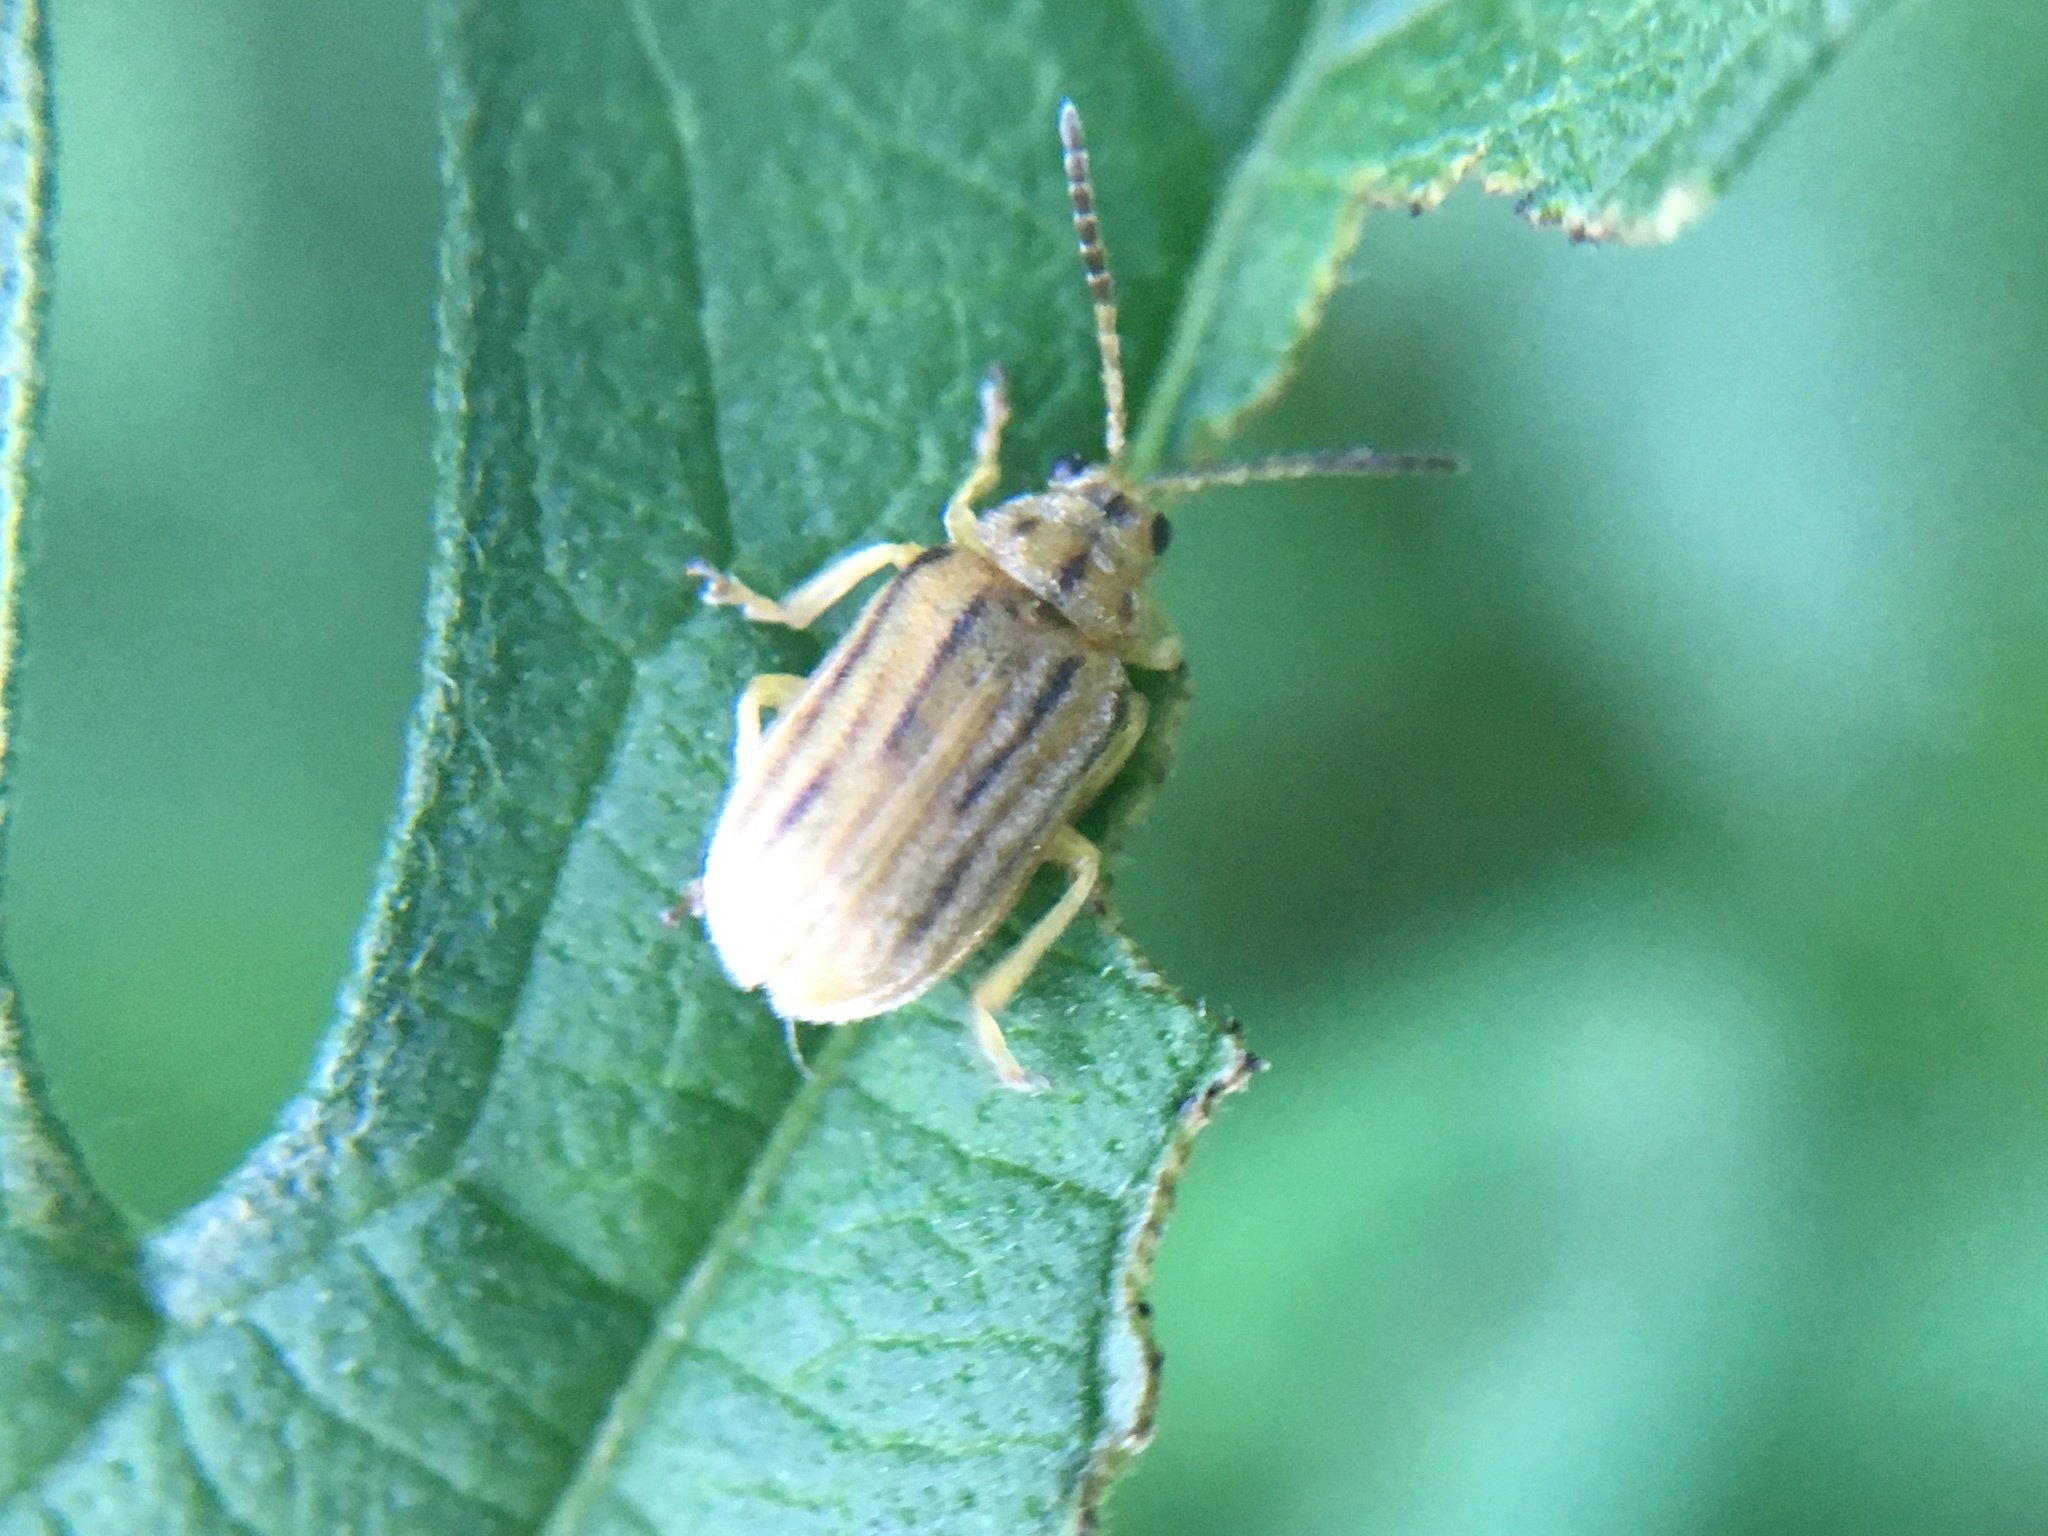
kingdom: Animalia
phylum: Arthropoda
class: Insecta
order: Coleoptera
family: Chrysomelidae
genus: Ophraella
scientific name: Ophraella communa
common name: Ragweed leaf beetle
